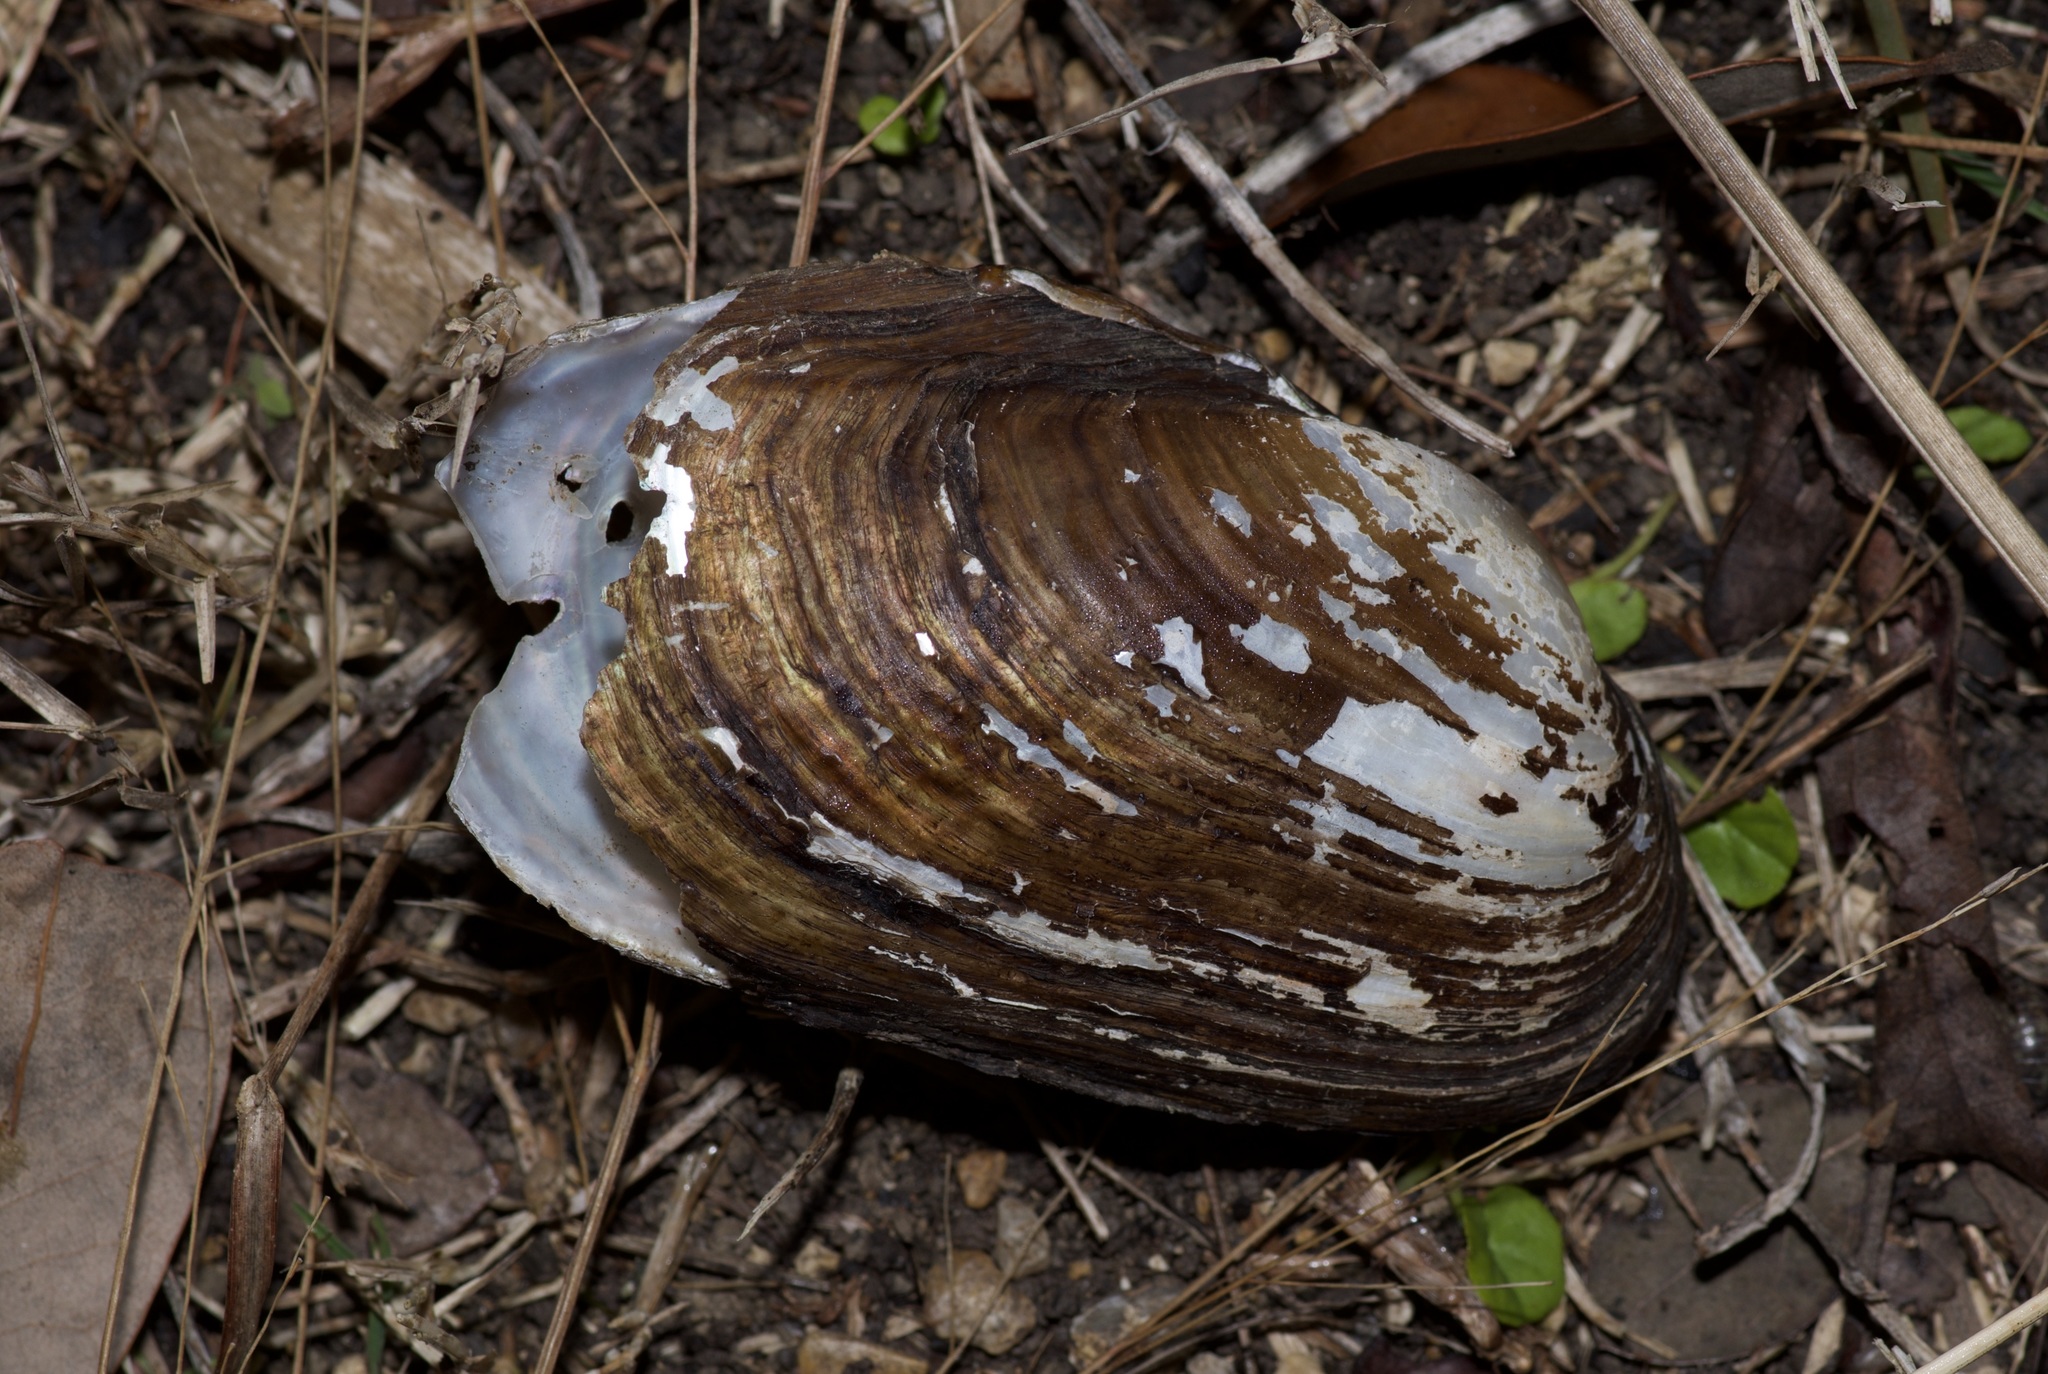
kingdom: Animalia
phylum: Mollusca
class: Bivalvia
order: Unionida
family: Unionidae
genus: Uniomerus
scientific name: Uniomerus tetralasmus
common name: Pondhorn
